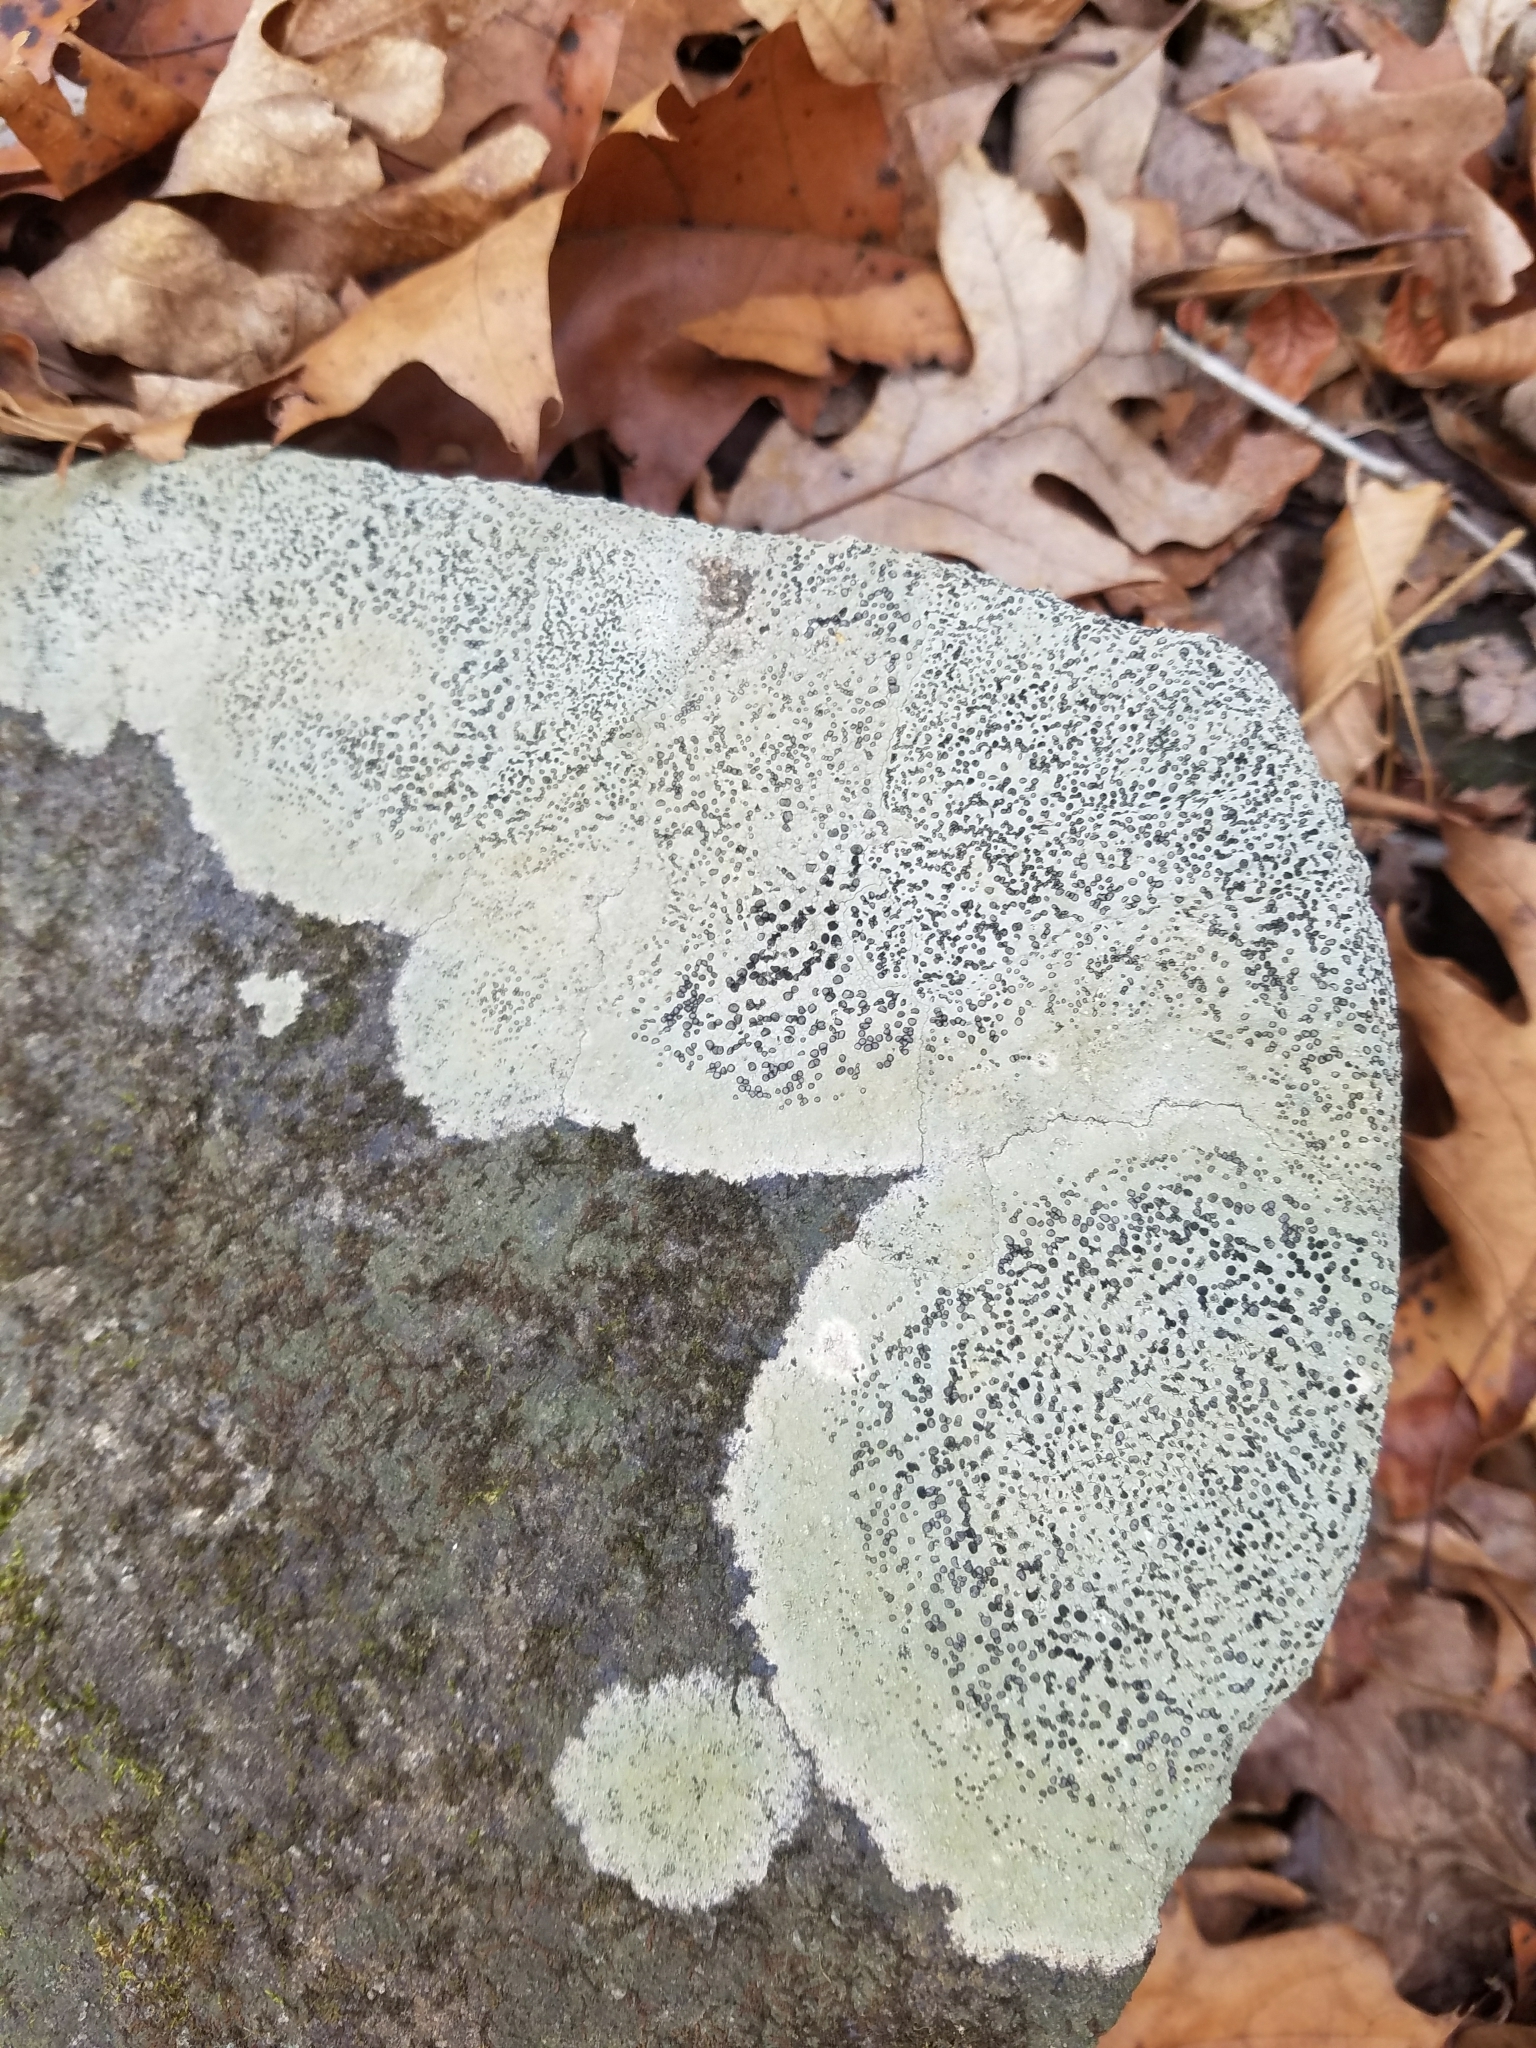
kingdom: Fungi
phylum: Ascomycota
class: Lecanoromycetes
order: Lecideales
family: Lecideaceae
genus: Porpidia
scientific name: Porpidia albocaerulescens
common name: Smokey-eyed boulder lichen
